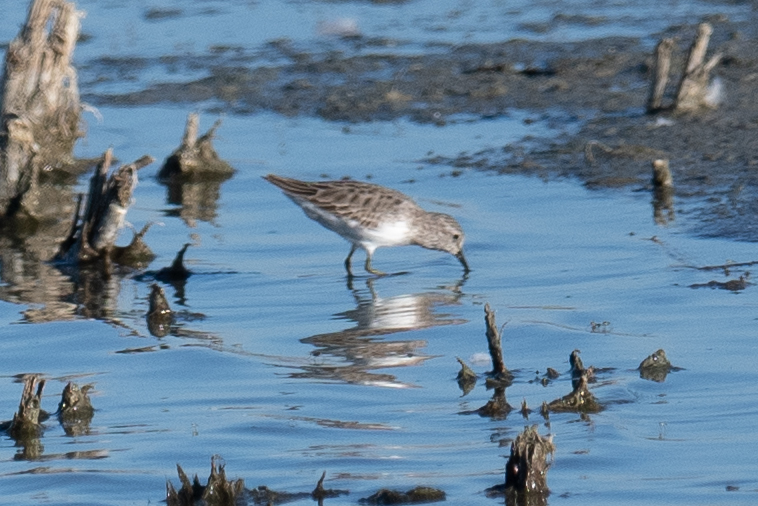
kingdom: Animalia
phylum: Chordata
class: Aves
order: Charadriiformes
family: Scolopacidae
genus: Calidris
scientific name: Calidris minutilla
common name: Least sandpiper
